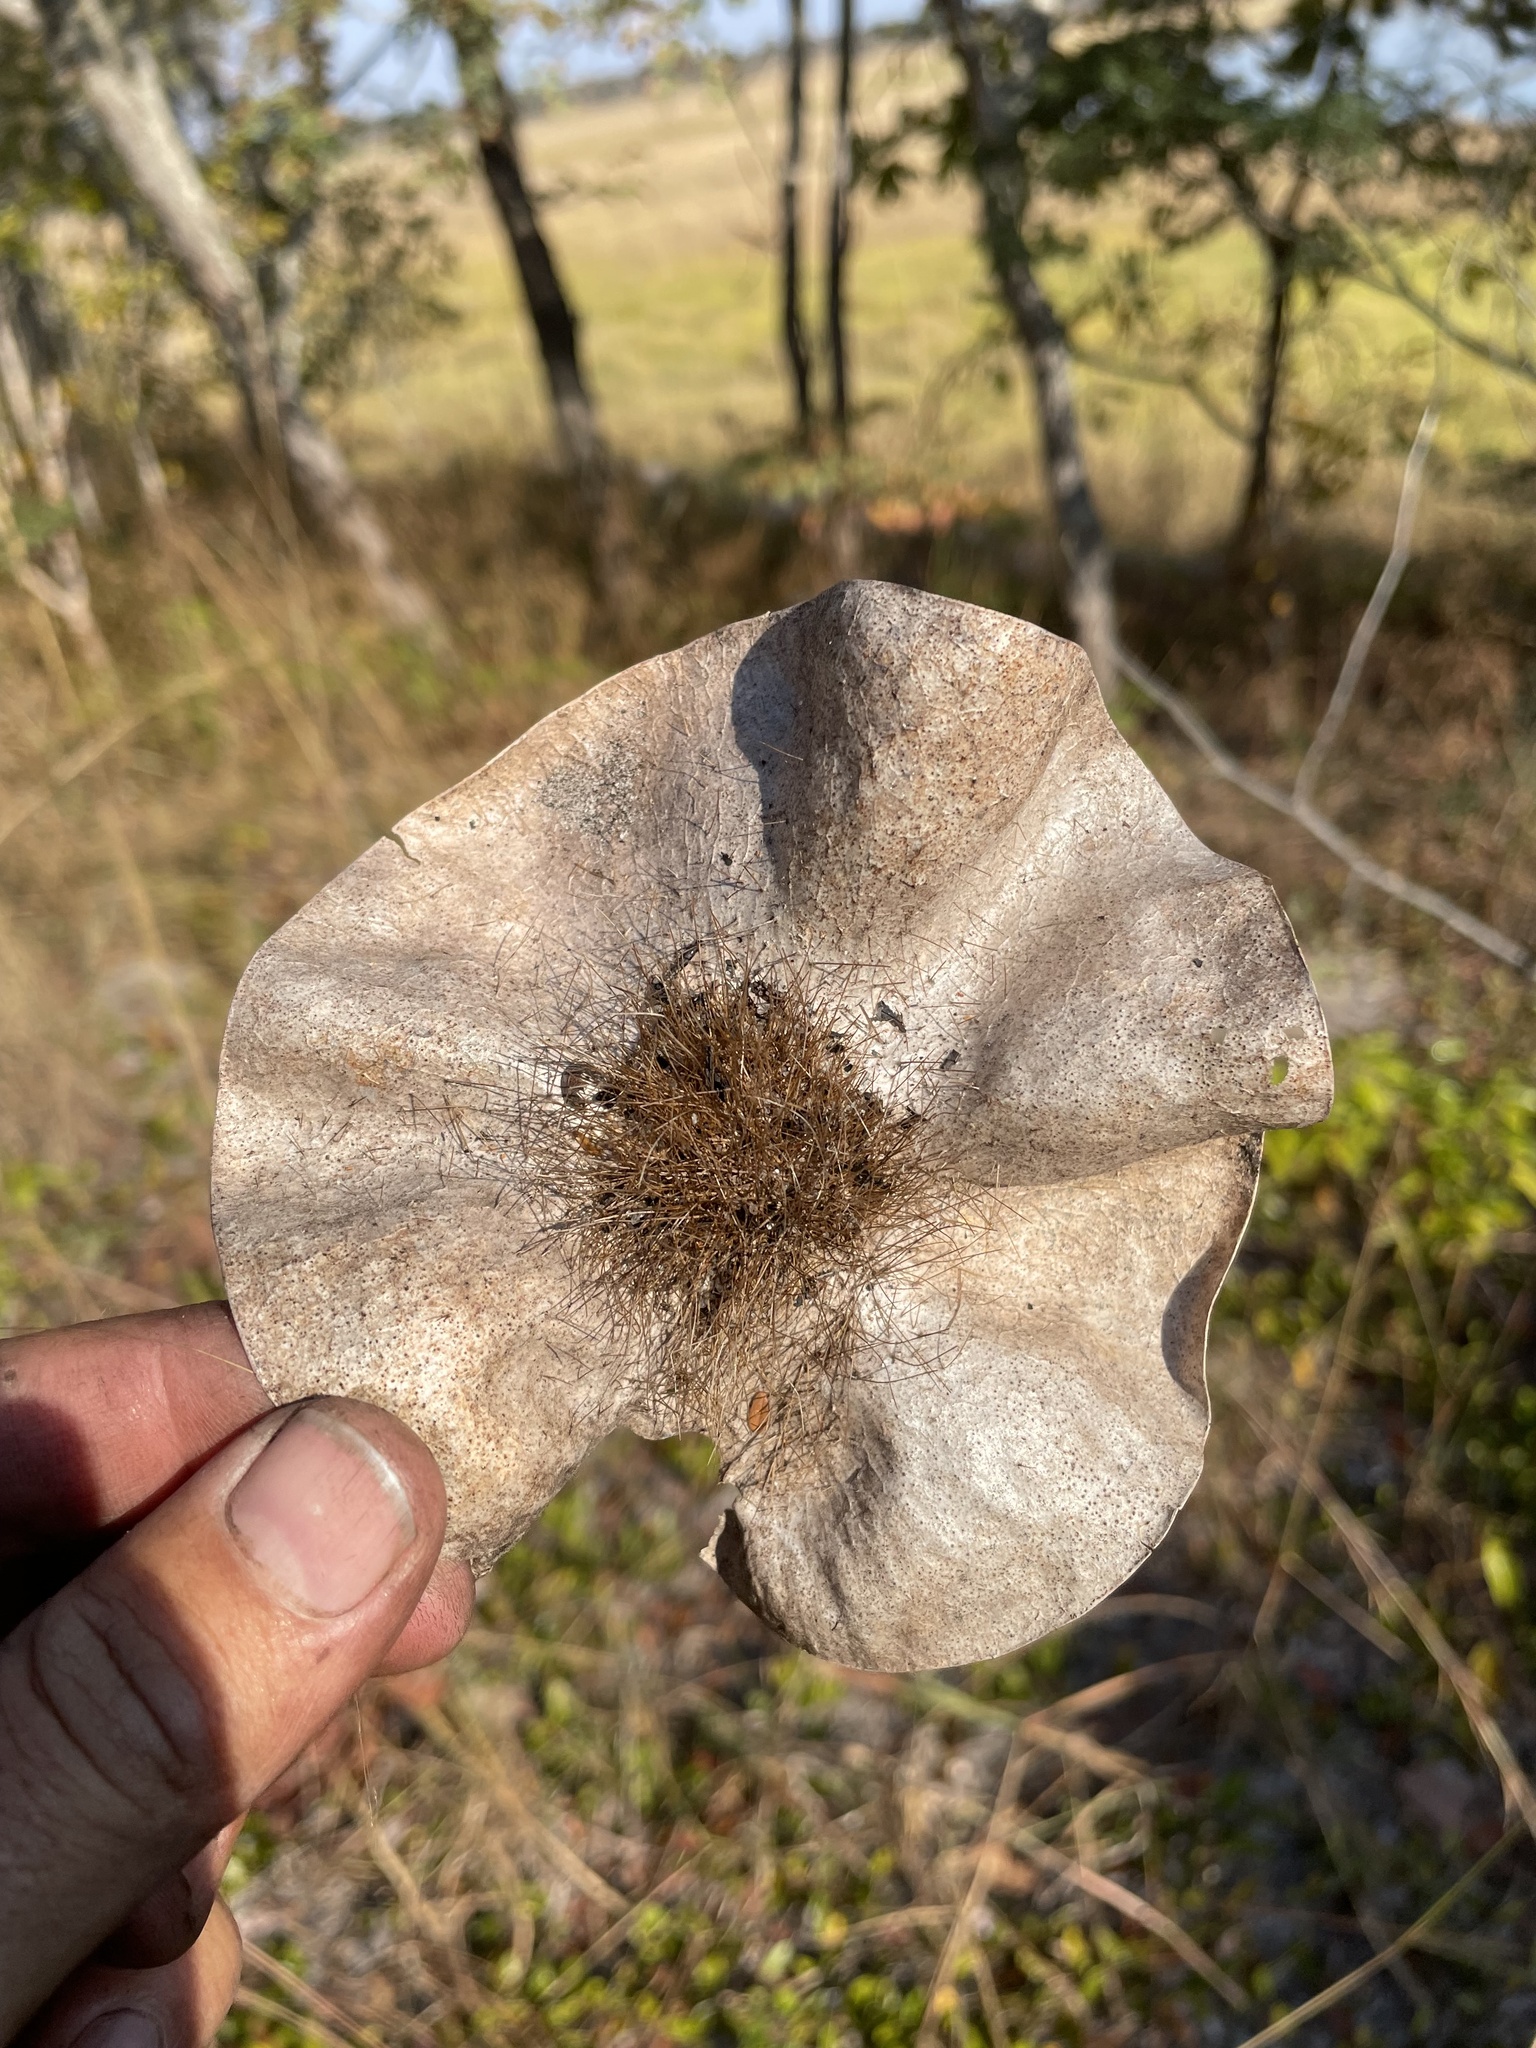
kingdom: Plantae
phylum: Tracheophyta
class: Magnoliopsida
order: Fabales
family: Fabaceae
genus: Pterocarpus
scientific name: Pterocarpus angolensis
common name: Bloodwood tree
